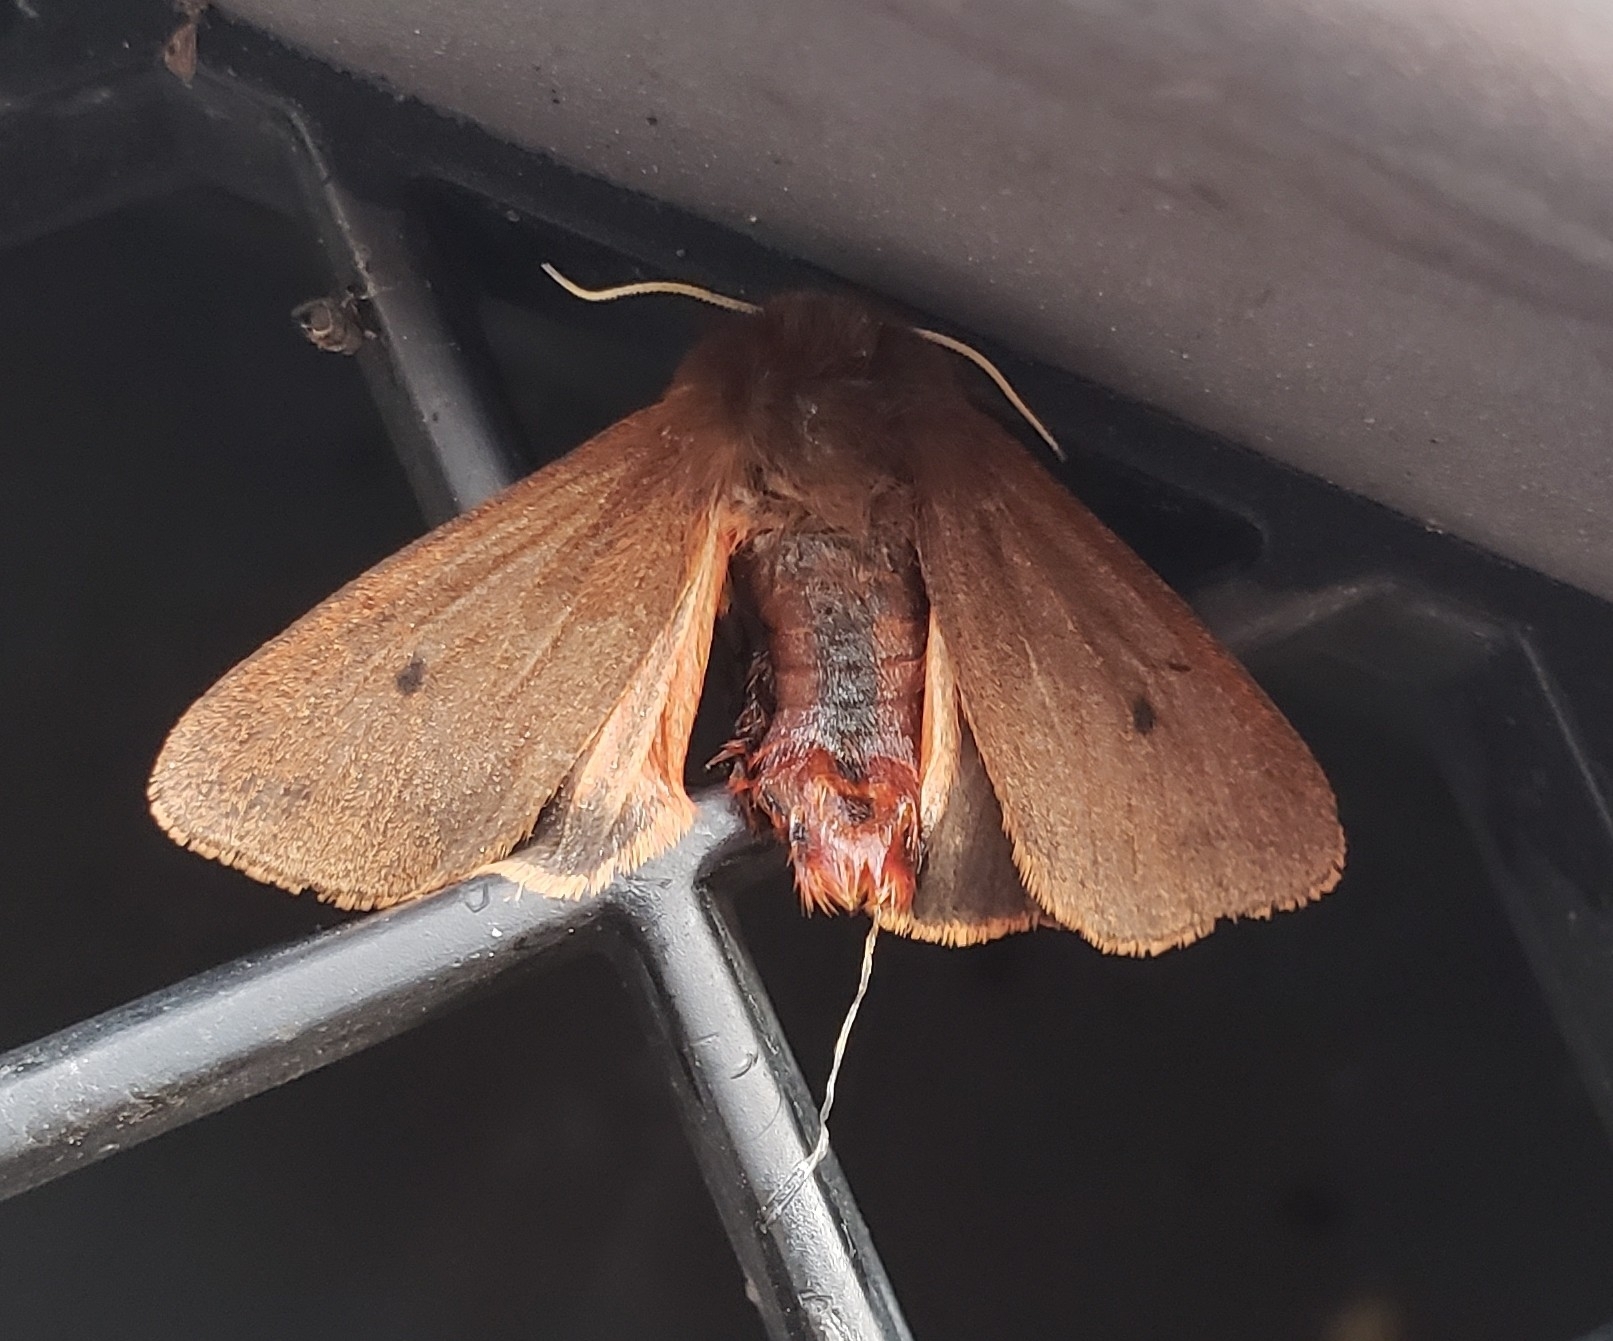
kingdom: Animalia
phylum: Arthropoda
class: Insecta
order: Lepidoptera
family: Erebidae
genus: Phragmatobia
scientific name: Phragmatobia fuliginosa
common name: Ruby tiger
